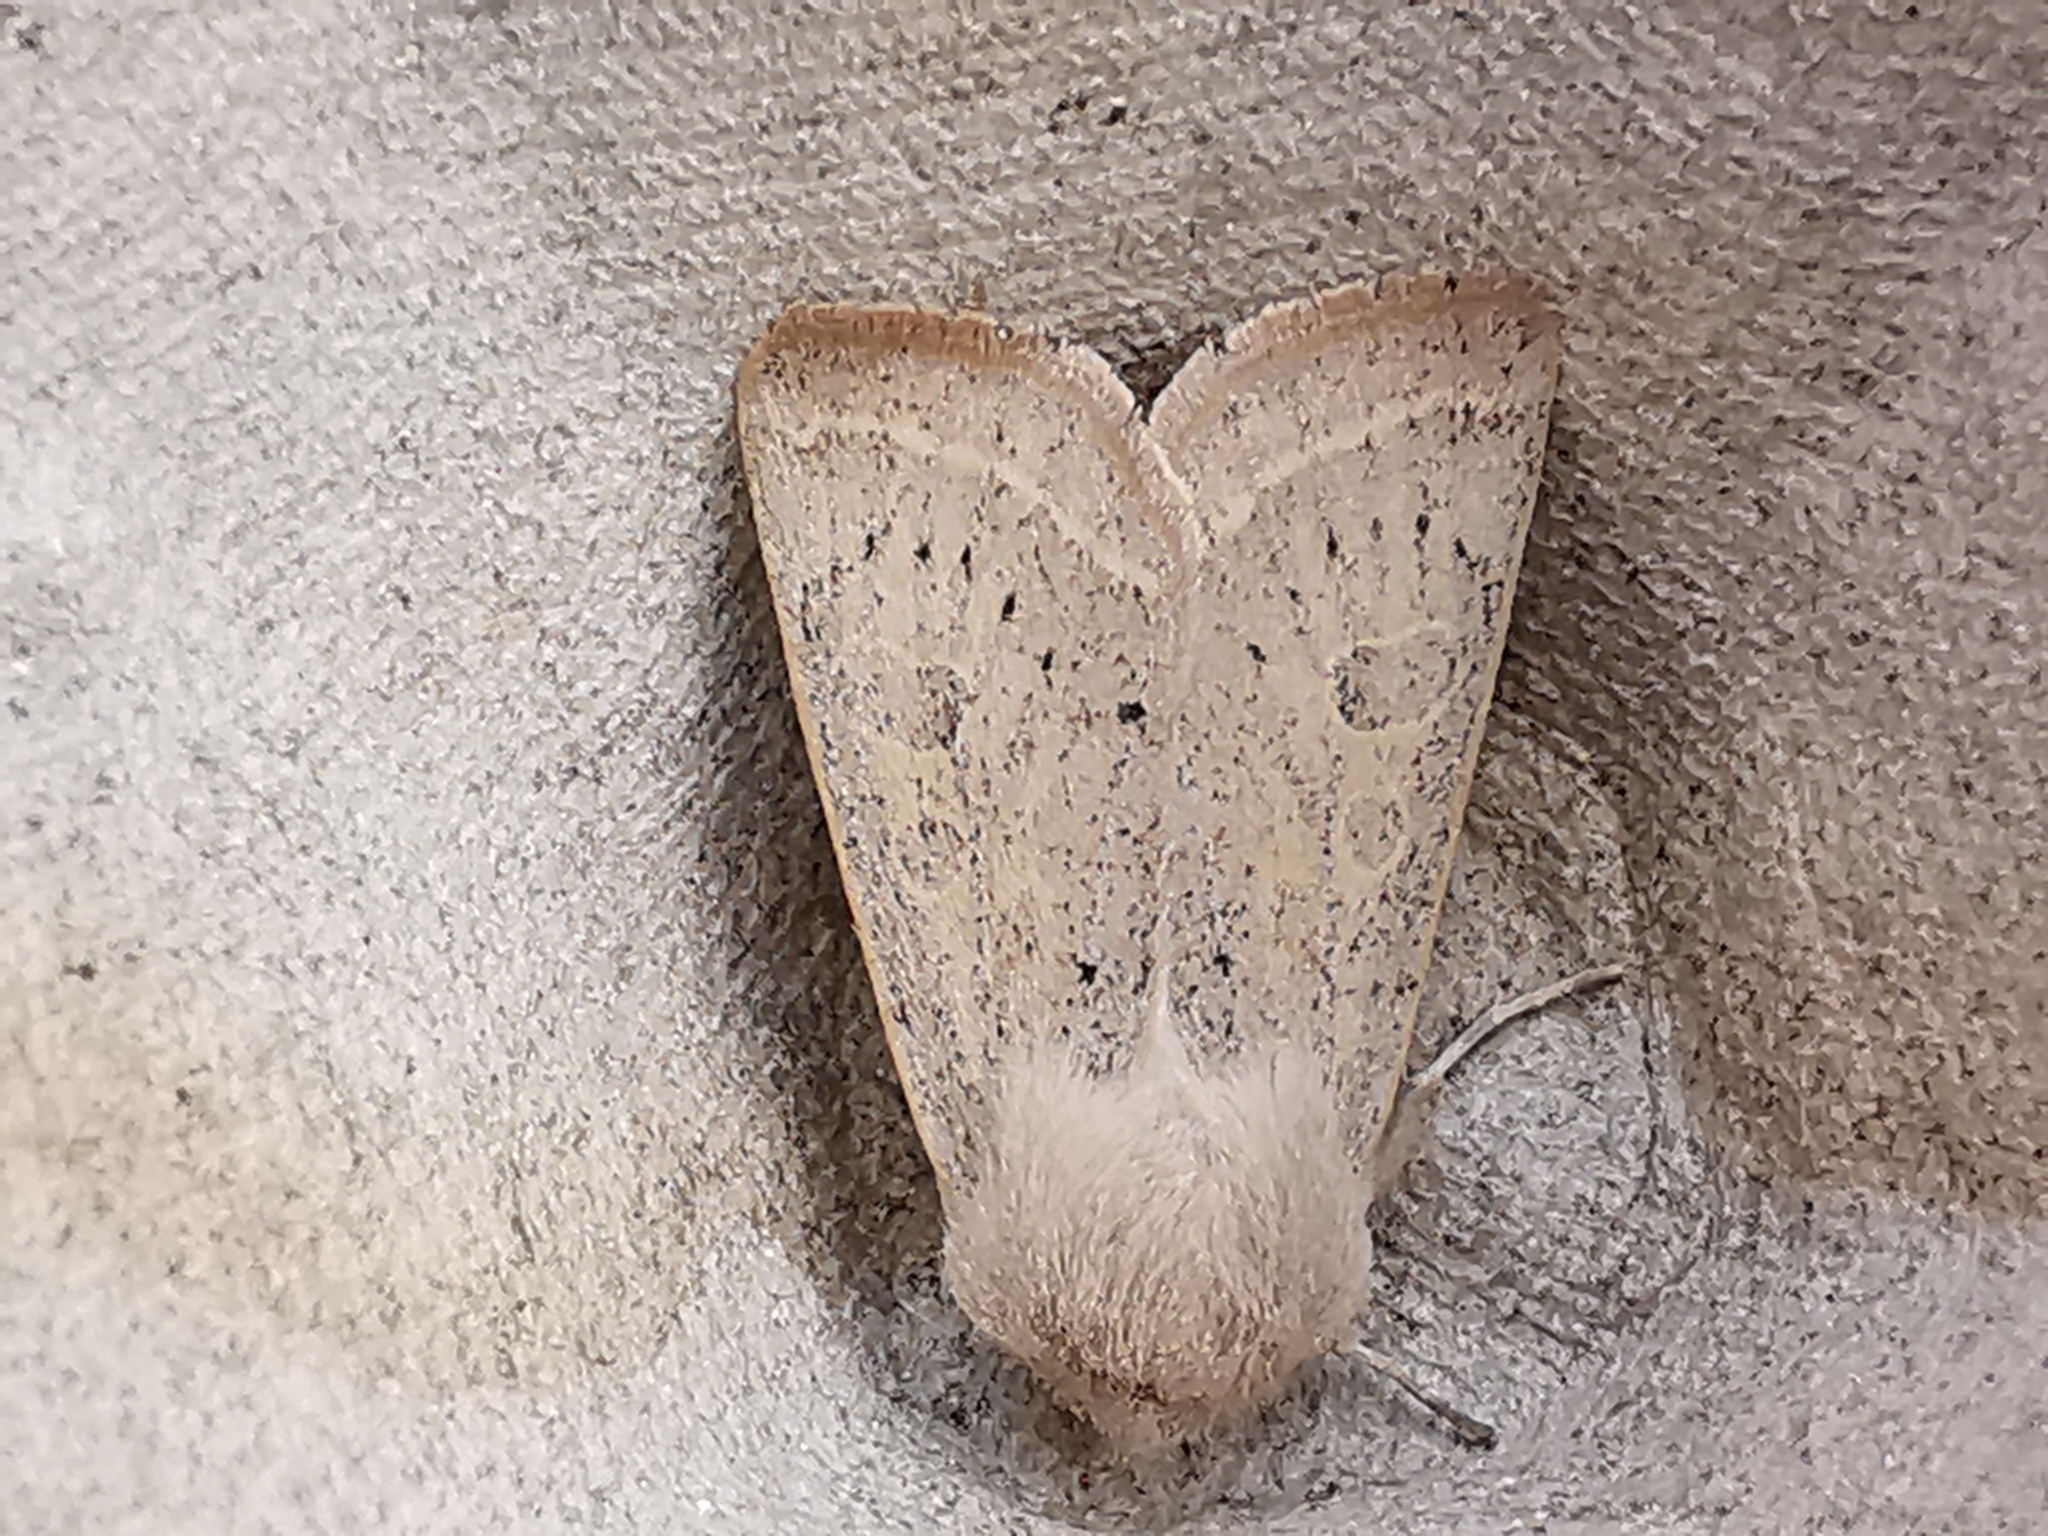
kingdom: Animalia
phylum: Arthropoda
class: Insecta
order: Lepidoptera
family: Noctuidae
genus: Orthosia
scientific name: Orthosia gracilis
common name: Powdered quaker
